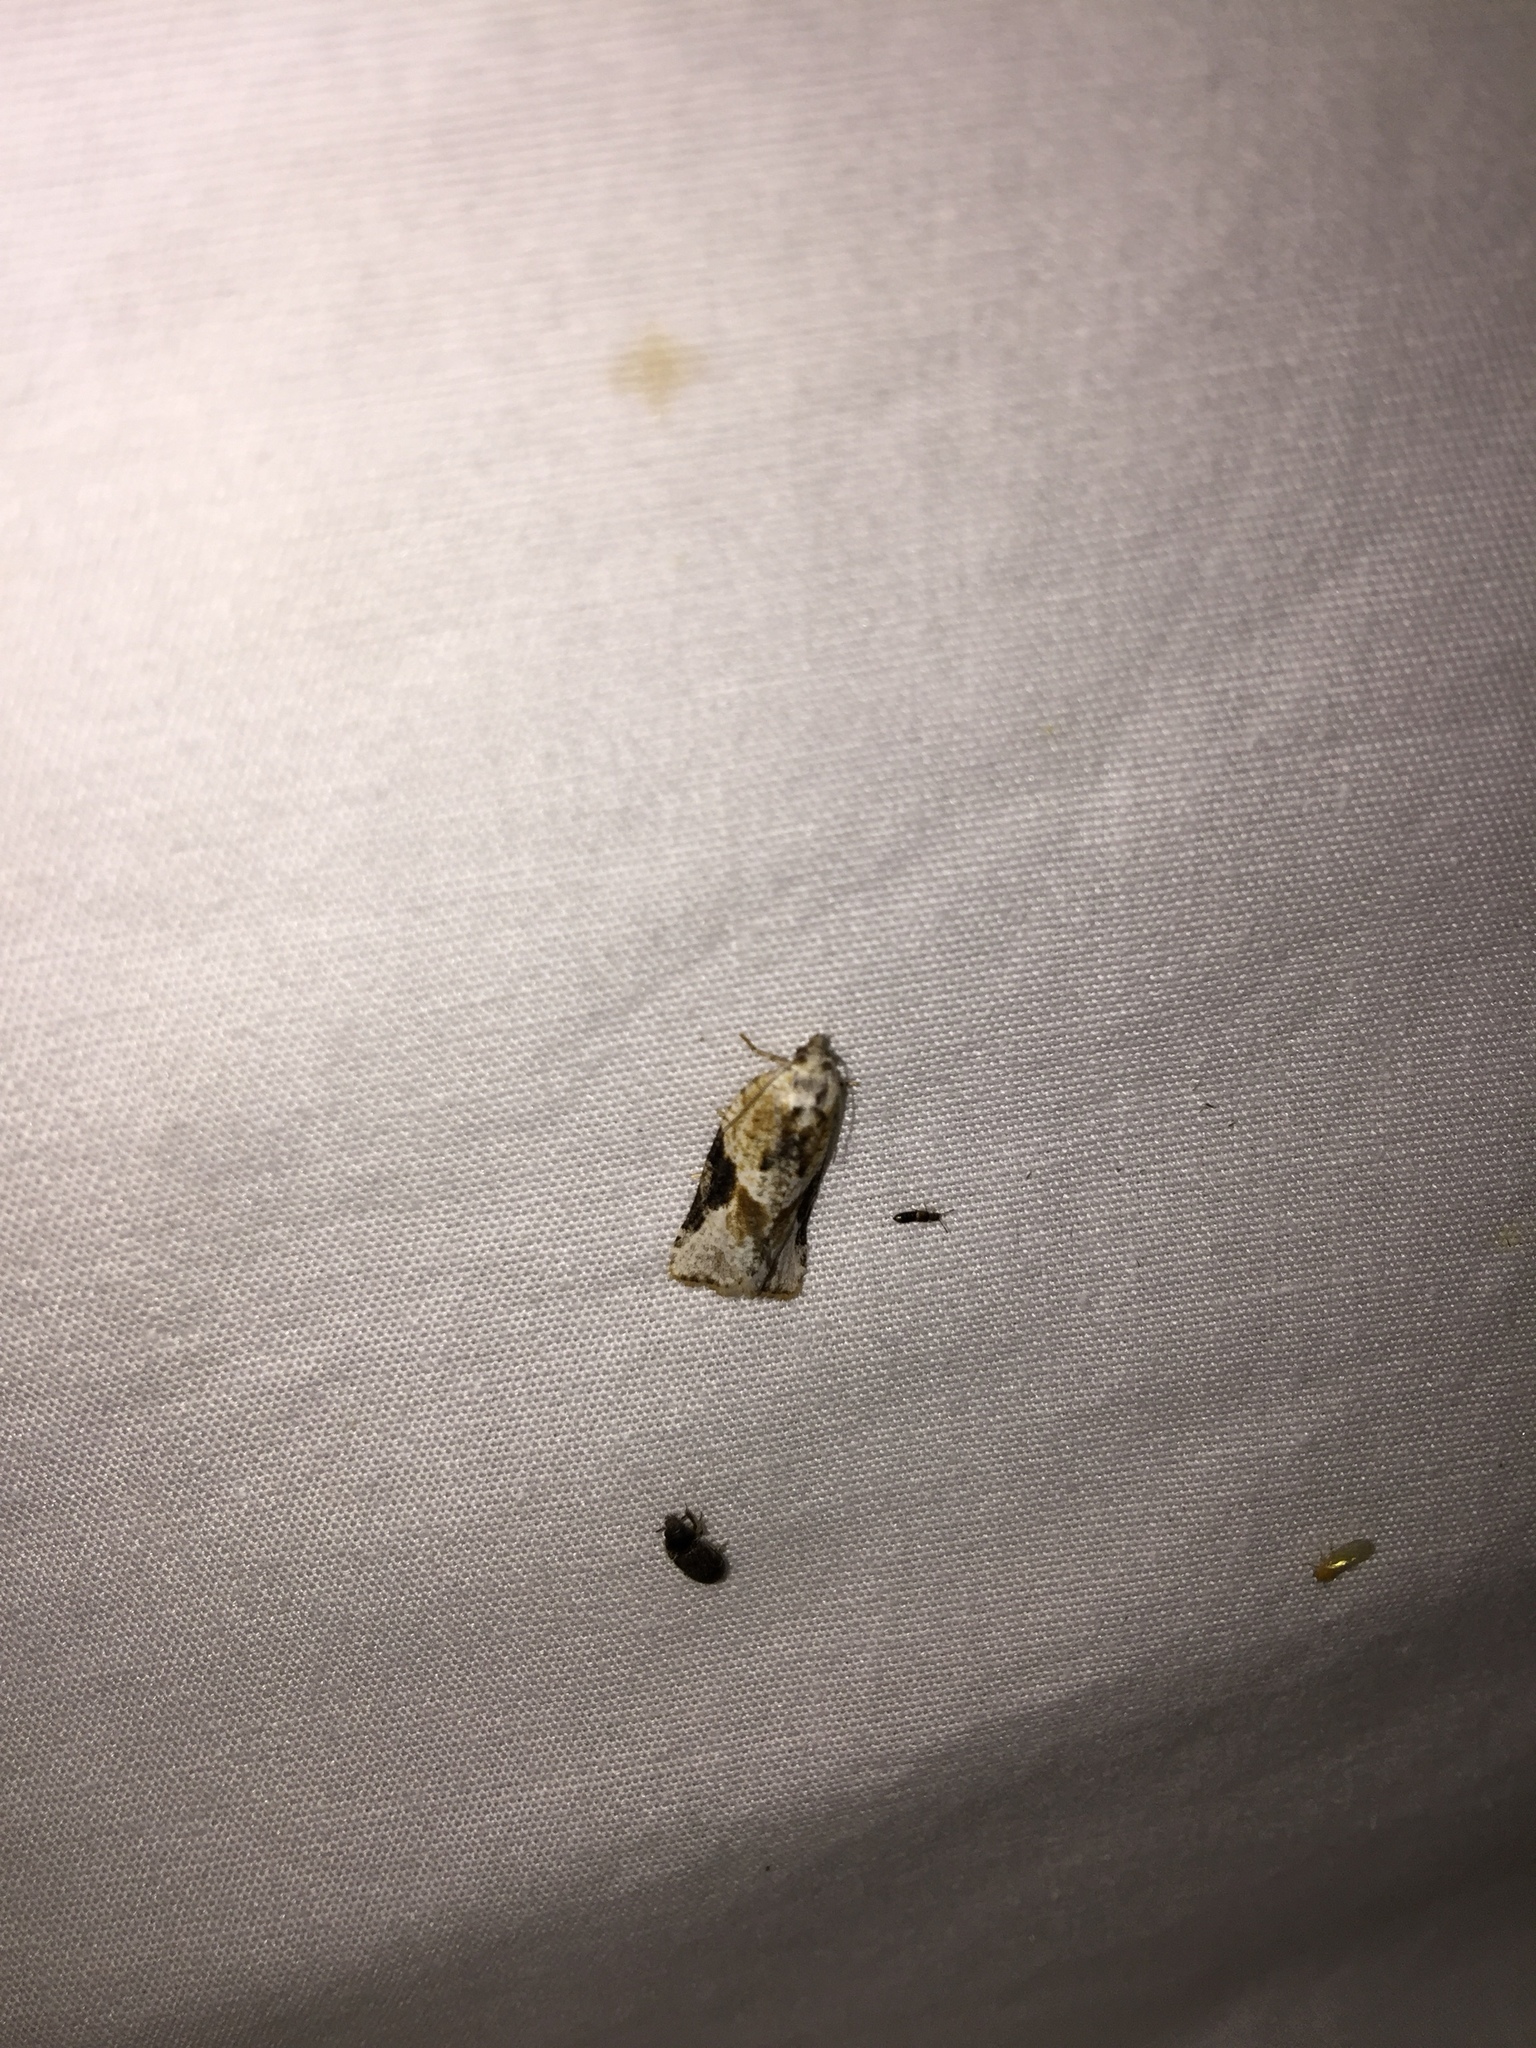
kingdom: Animalia
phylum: Arthropoda
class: Insecta
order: Lepidoptera
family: Tortricidae
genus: Argyrotaenia
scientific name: Argyrotaenia mariana
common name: Gray-banded leafroller moth
